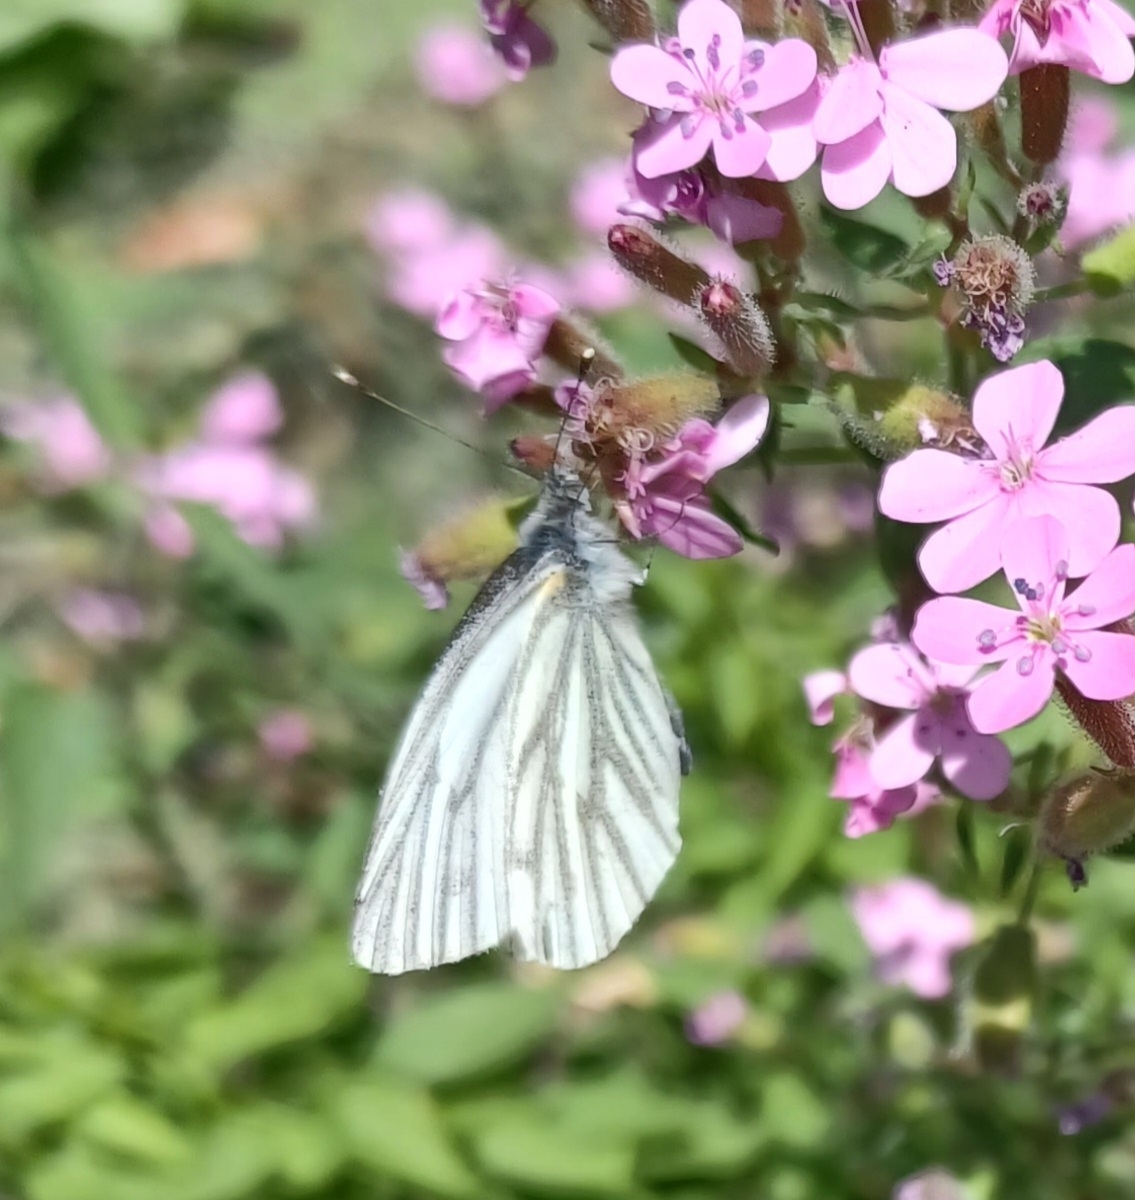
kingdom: Animalia
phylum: Arthropoda
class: Insecta
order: Lepidoptera
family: Pieridae
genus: Pieris
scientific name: Pieris napi
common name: Green-veined white
